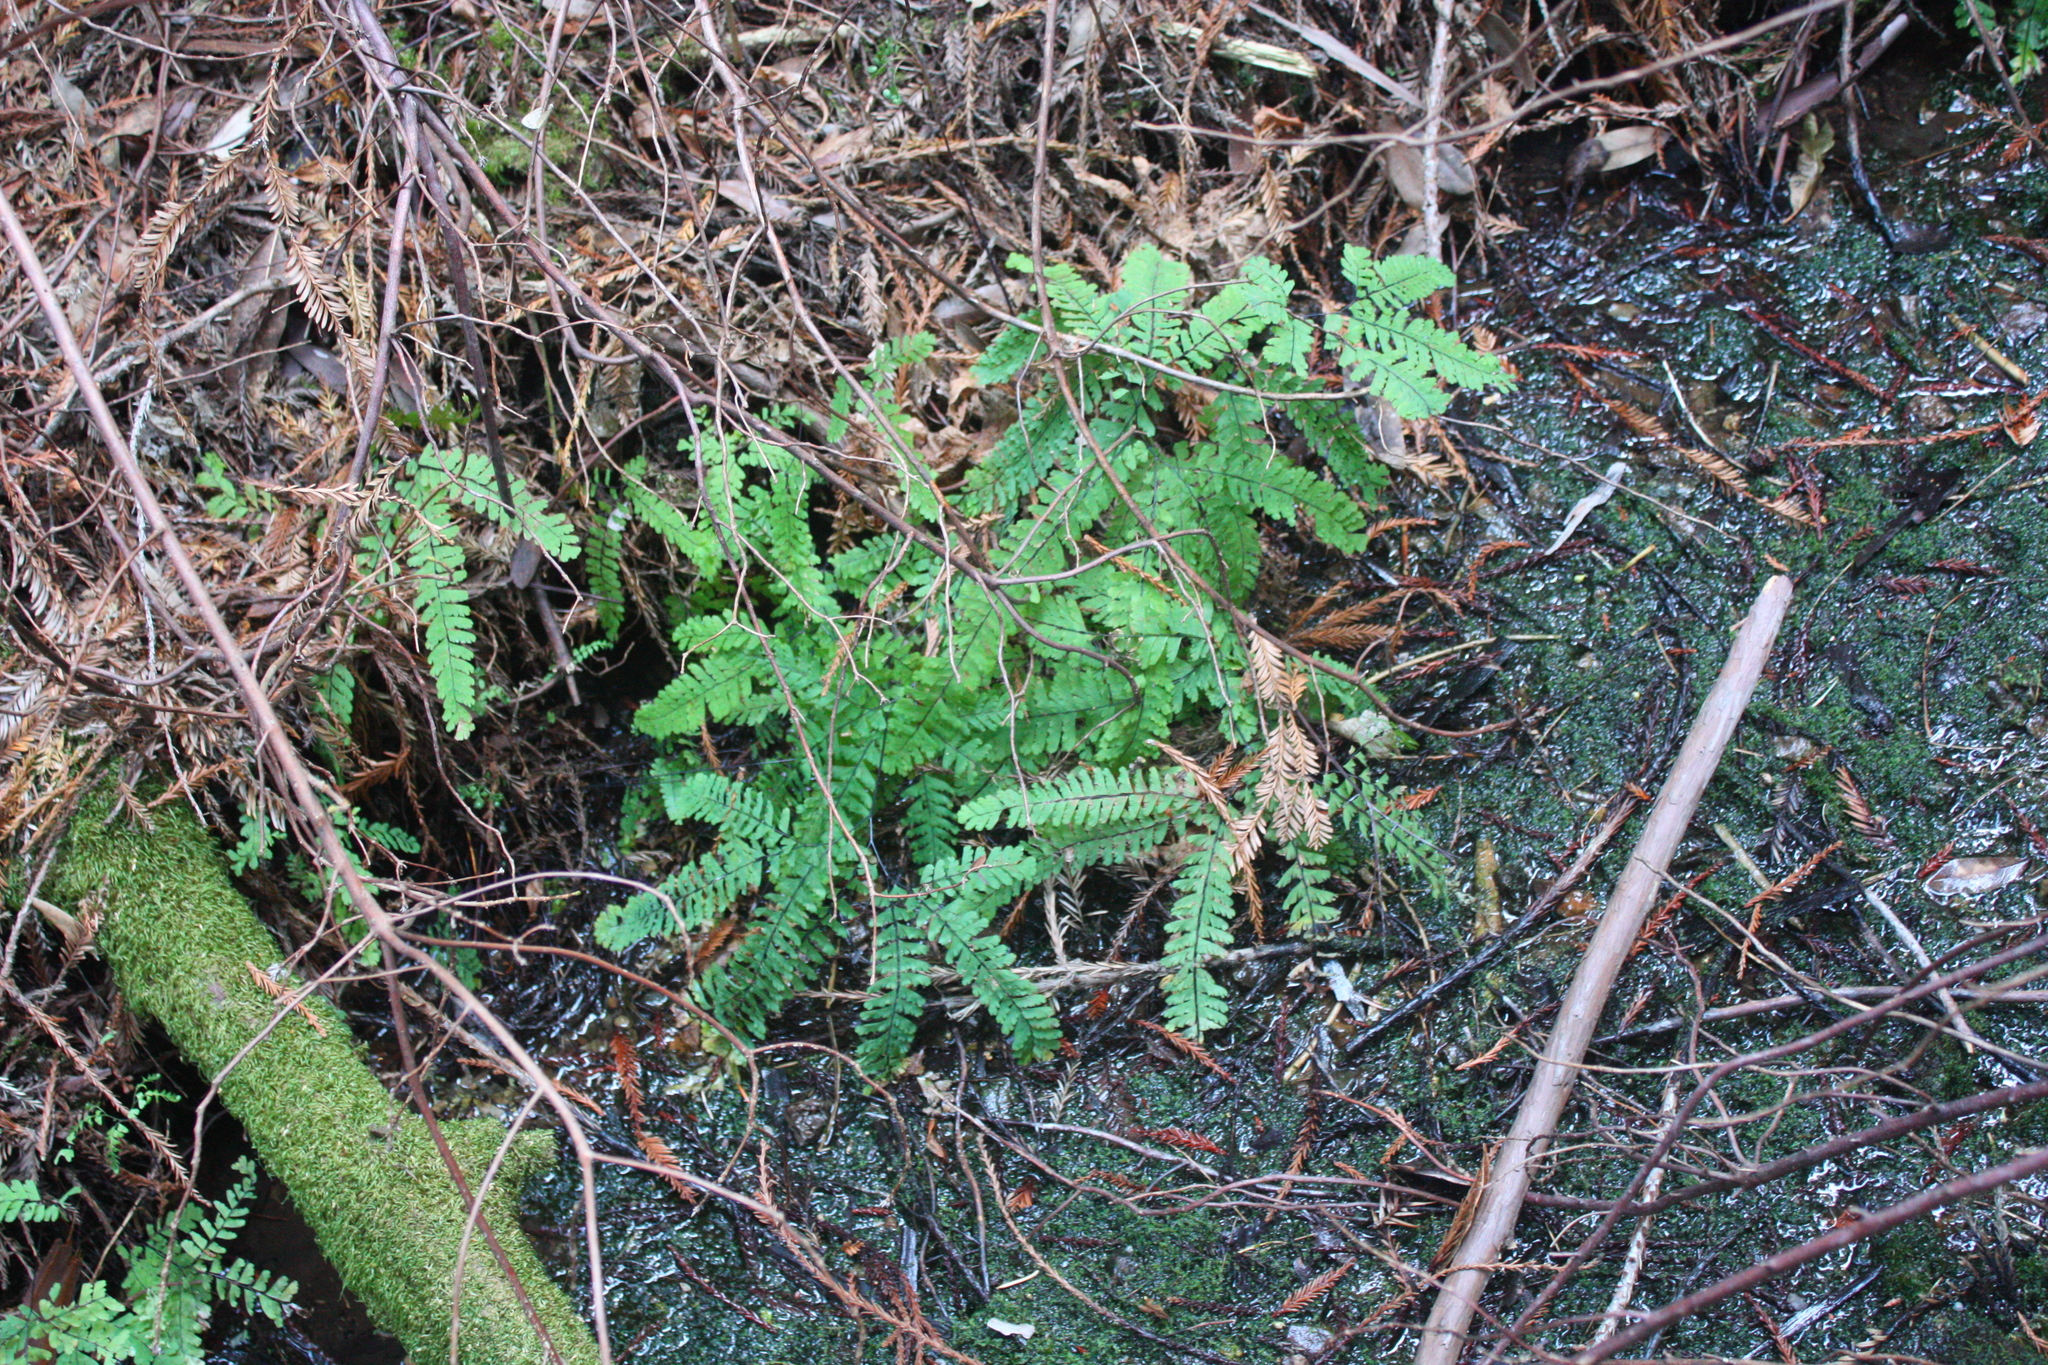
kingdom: Plantae
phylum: Tracheophyta
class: Polypodiopsida
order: Polypodiales
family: Pteridaceae
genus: Adiantum
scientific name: Adiantum aleuticum
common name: Aleutian maidenhair fern
